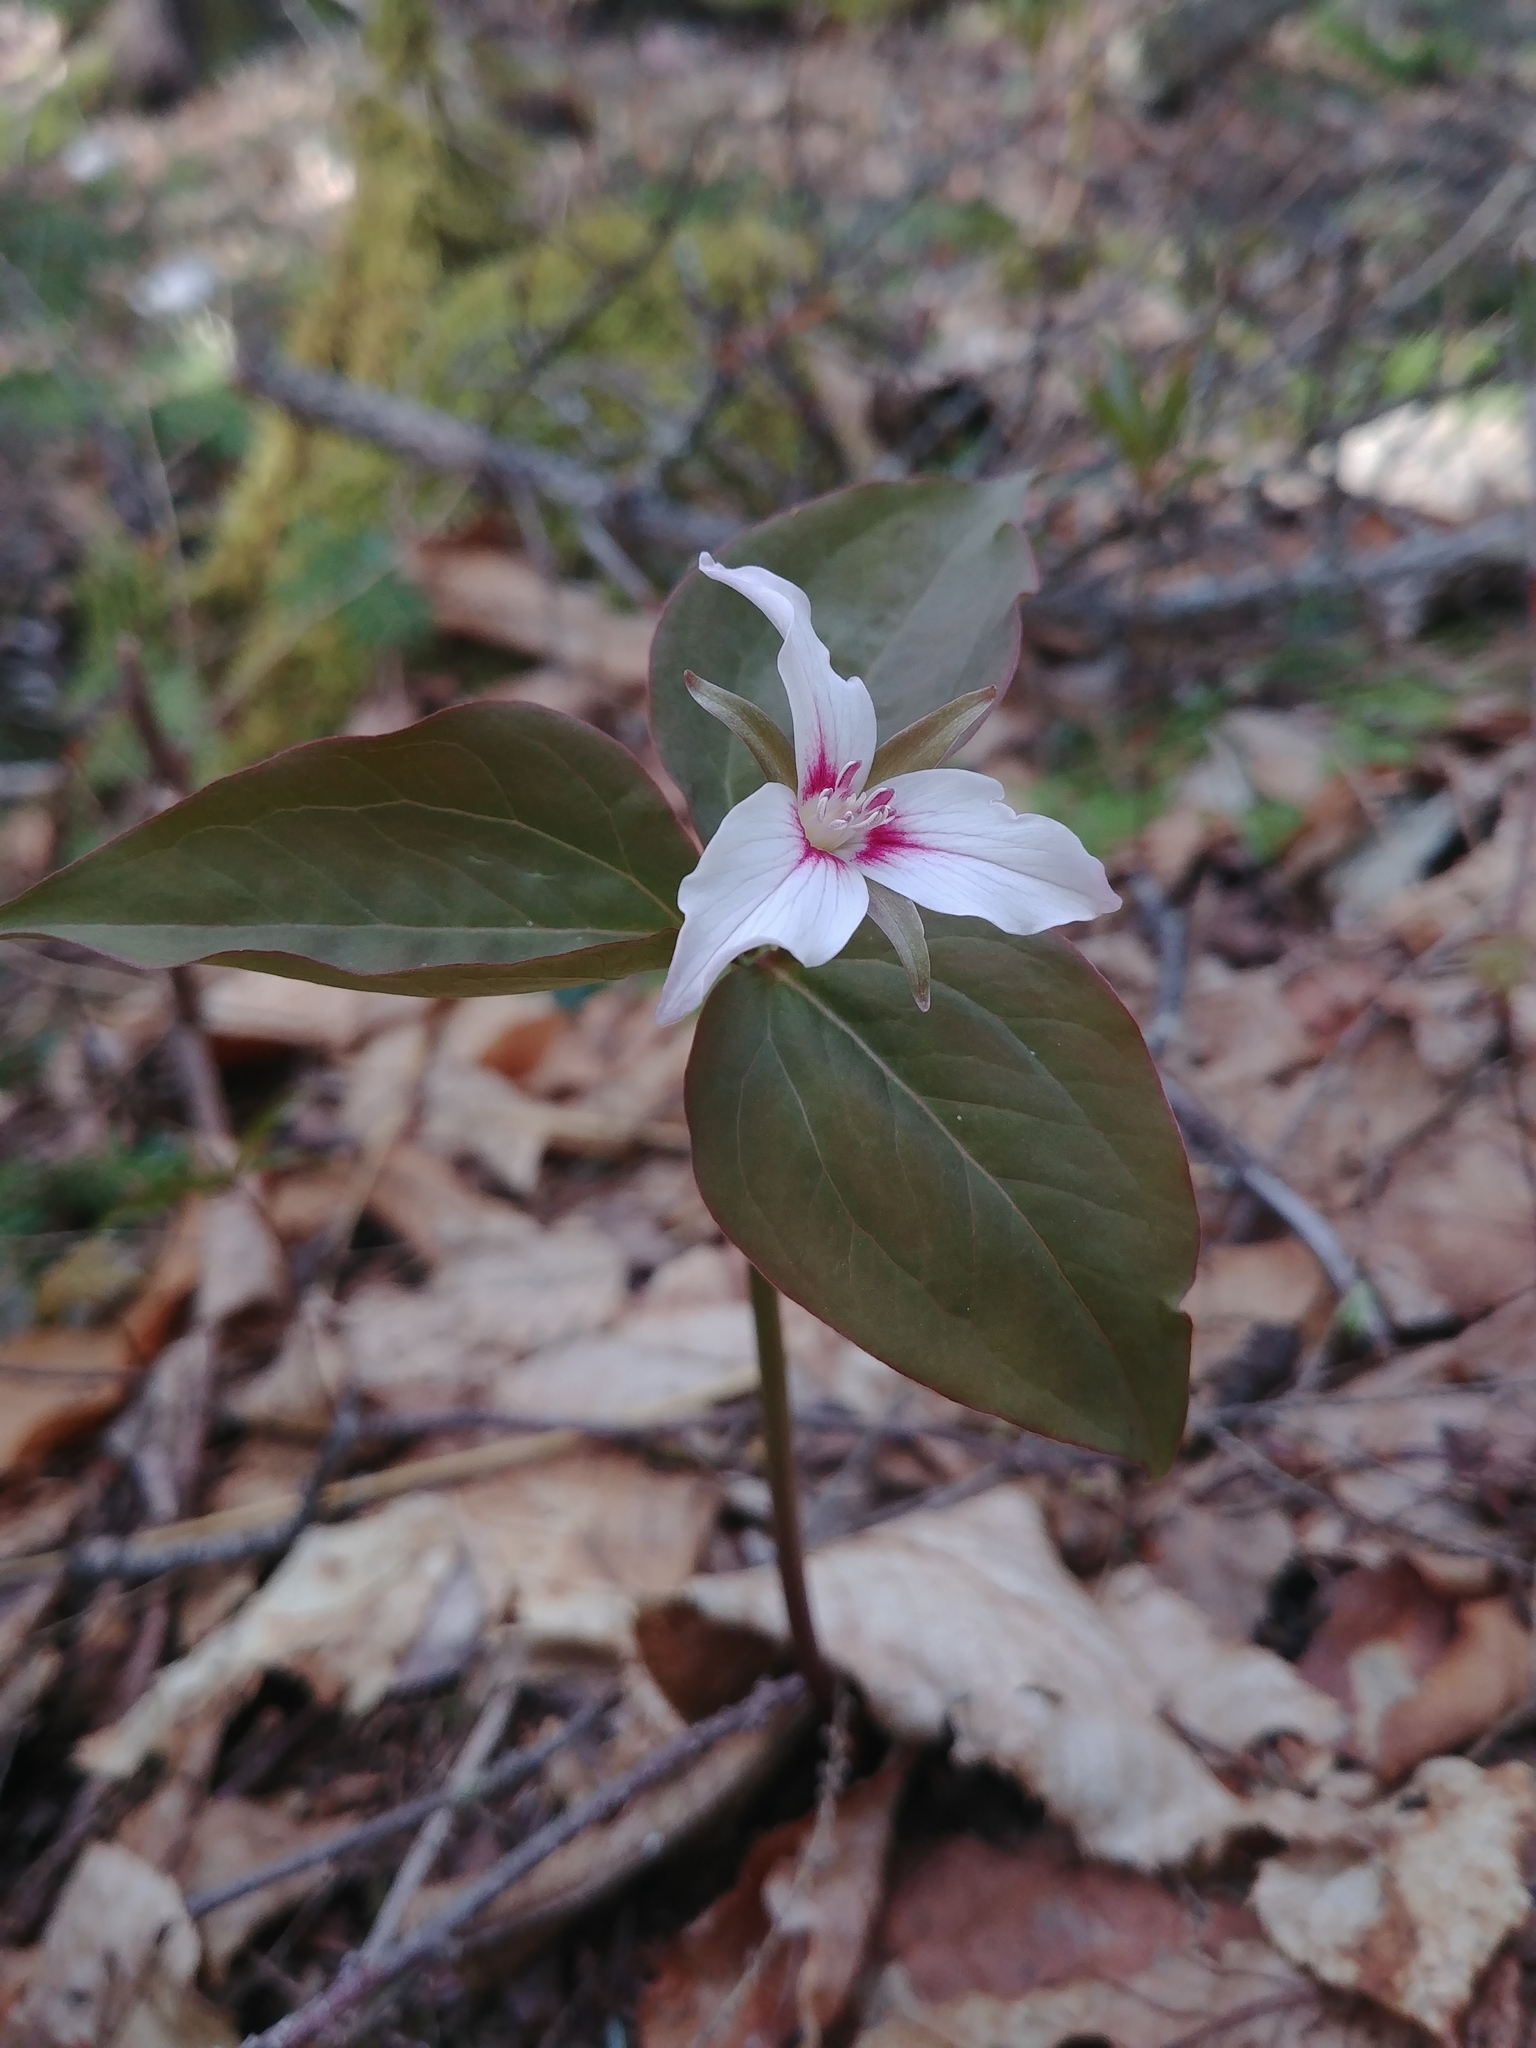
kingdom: Plantae
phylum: Tracheophyta
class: Liliopsida
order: Liliales
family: Melanthiaceae
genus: Trillium
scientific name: Trillium undulatum
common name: Paint trillium
